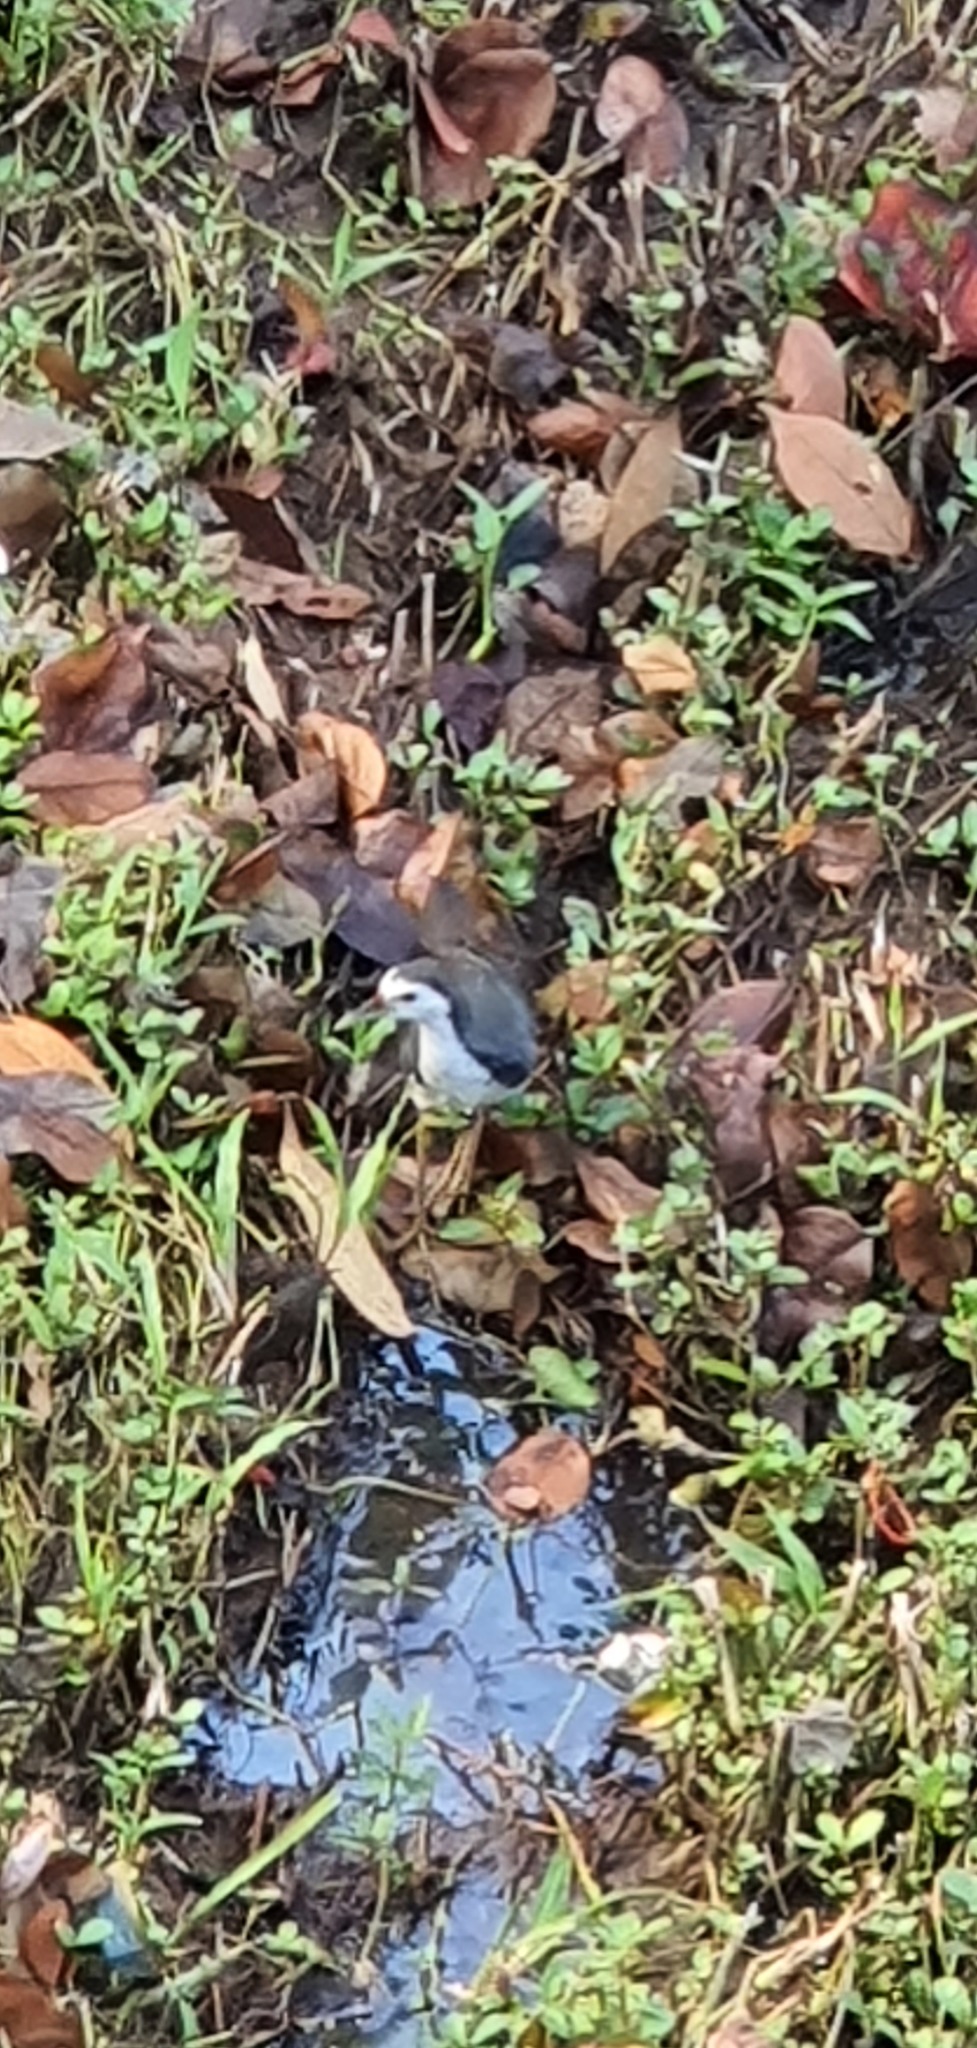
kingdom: Animalia
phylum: Chordata
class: Aves
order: Gruiformes
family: Rallidae
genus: Amaurornis
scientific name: Amaurornis phoenicurus
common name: White-breasted waterhen
